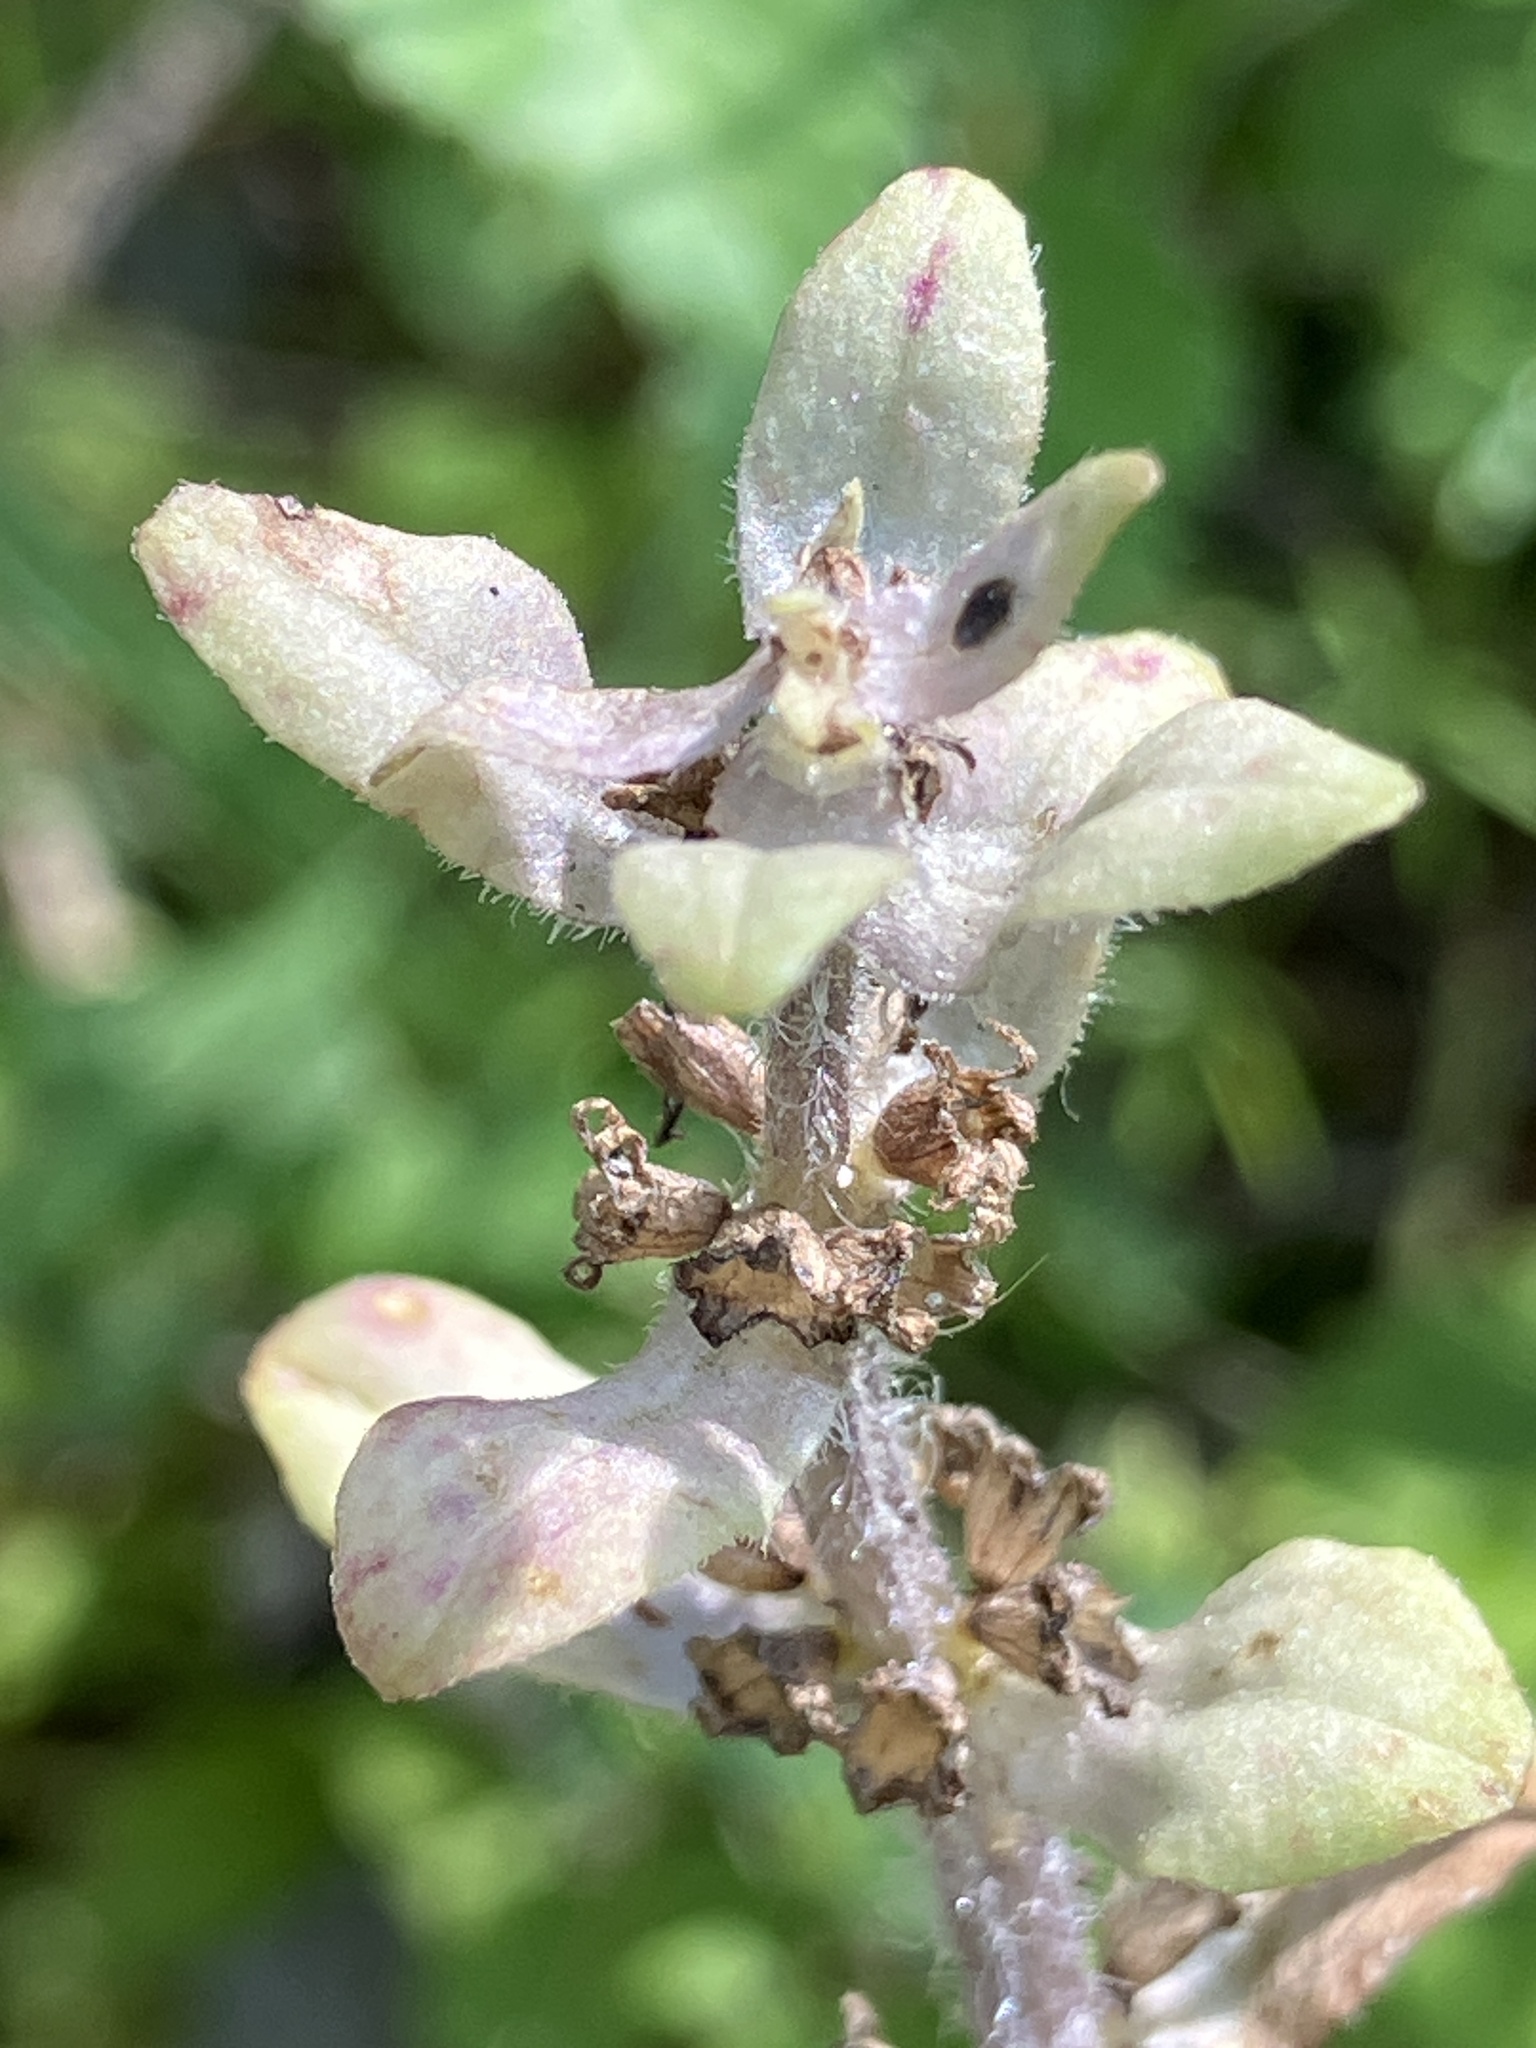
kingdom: Plantae
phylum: Tracheophyta
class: Magnoliopsida
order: Lamiales
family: Lamiaceae
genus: Ajuga
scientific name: Ajuga pyramidalis
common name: Pyramid bugle
